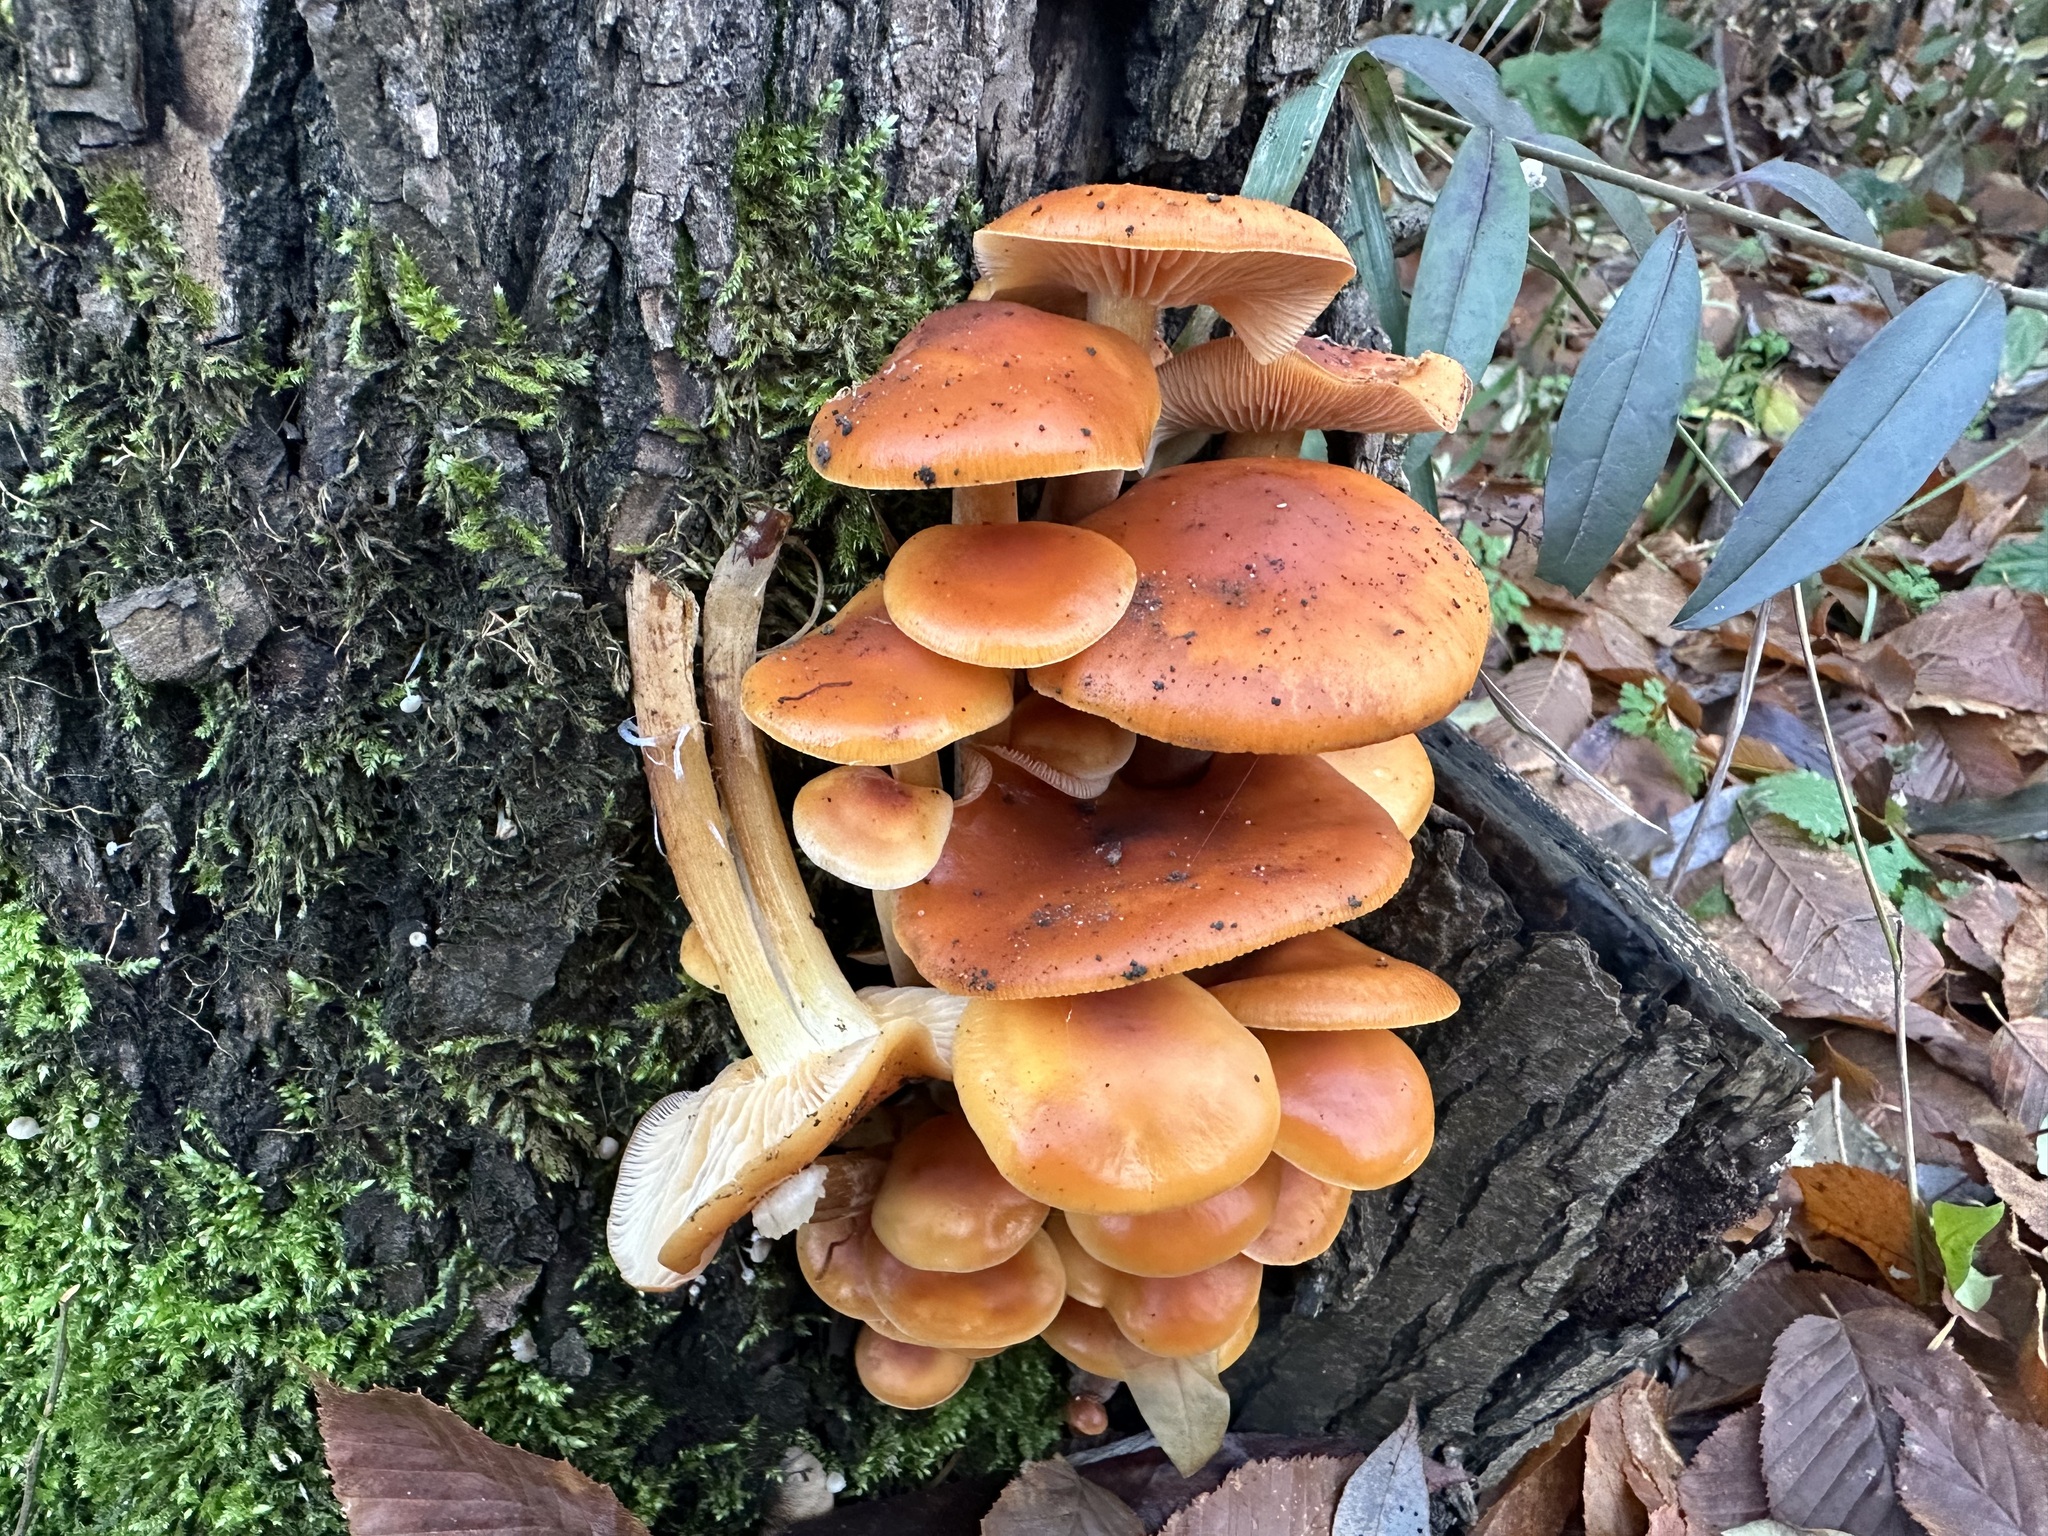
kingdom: Fungi
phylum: Basidiomycota
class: Agaricomycetes
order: Agaricales
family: Physalacriaceae
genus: Flammulina
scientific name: Flammulina
